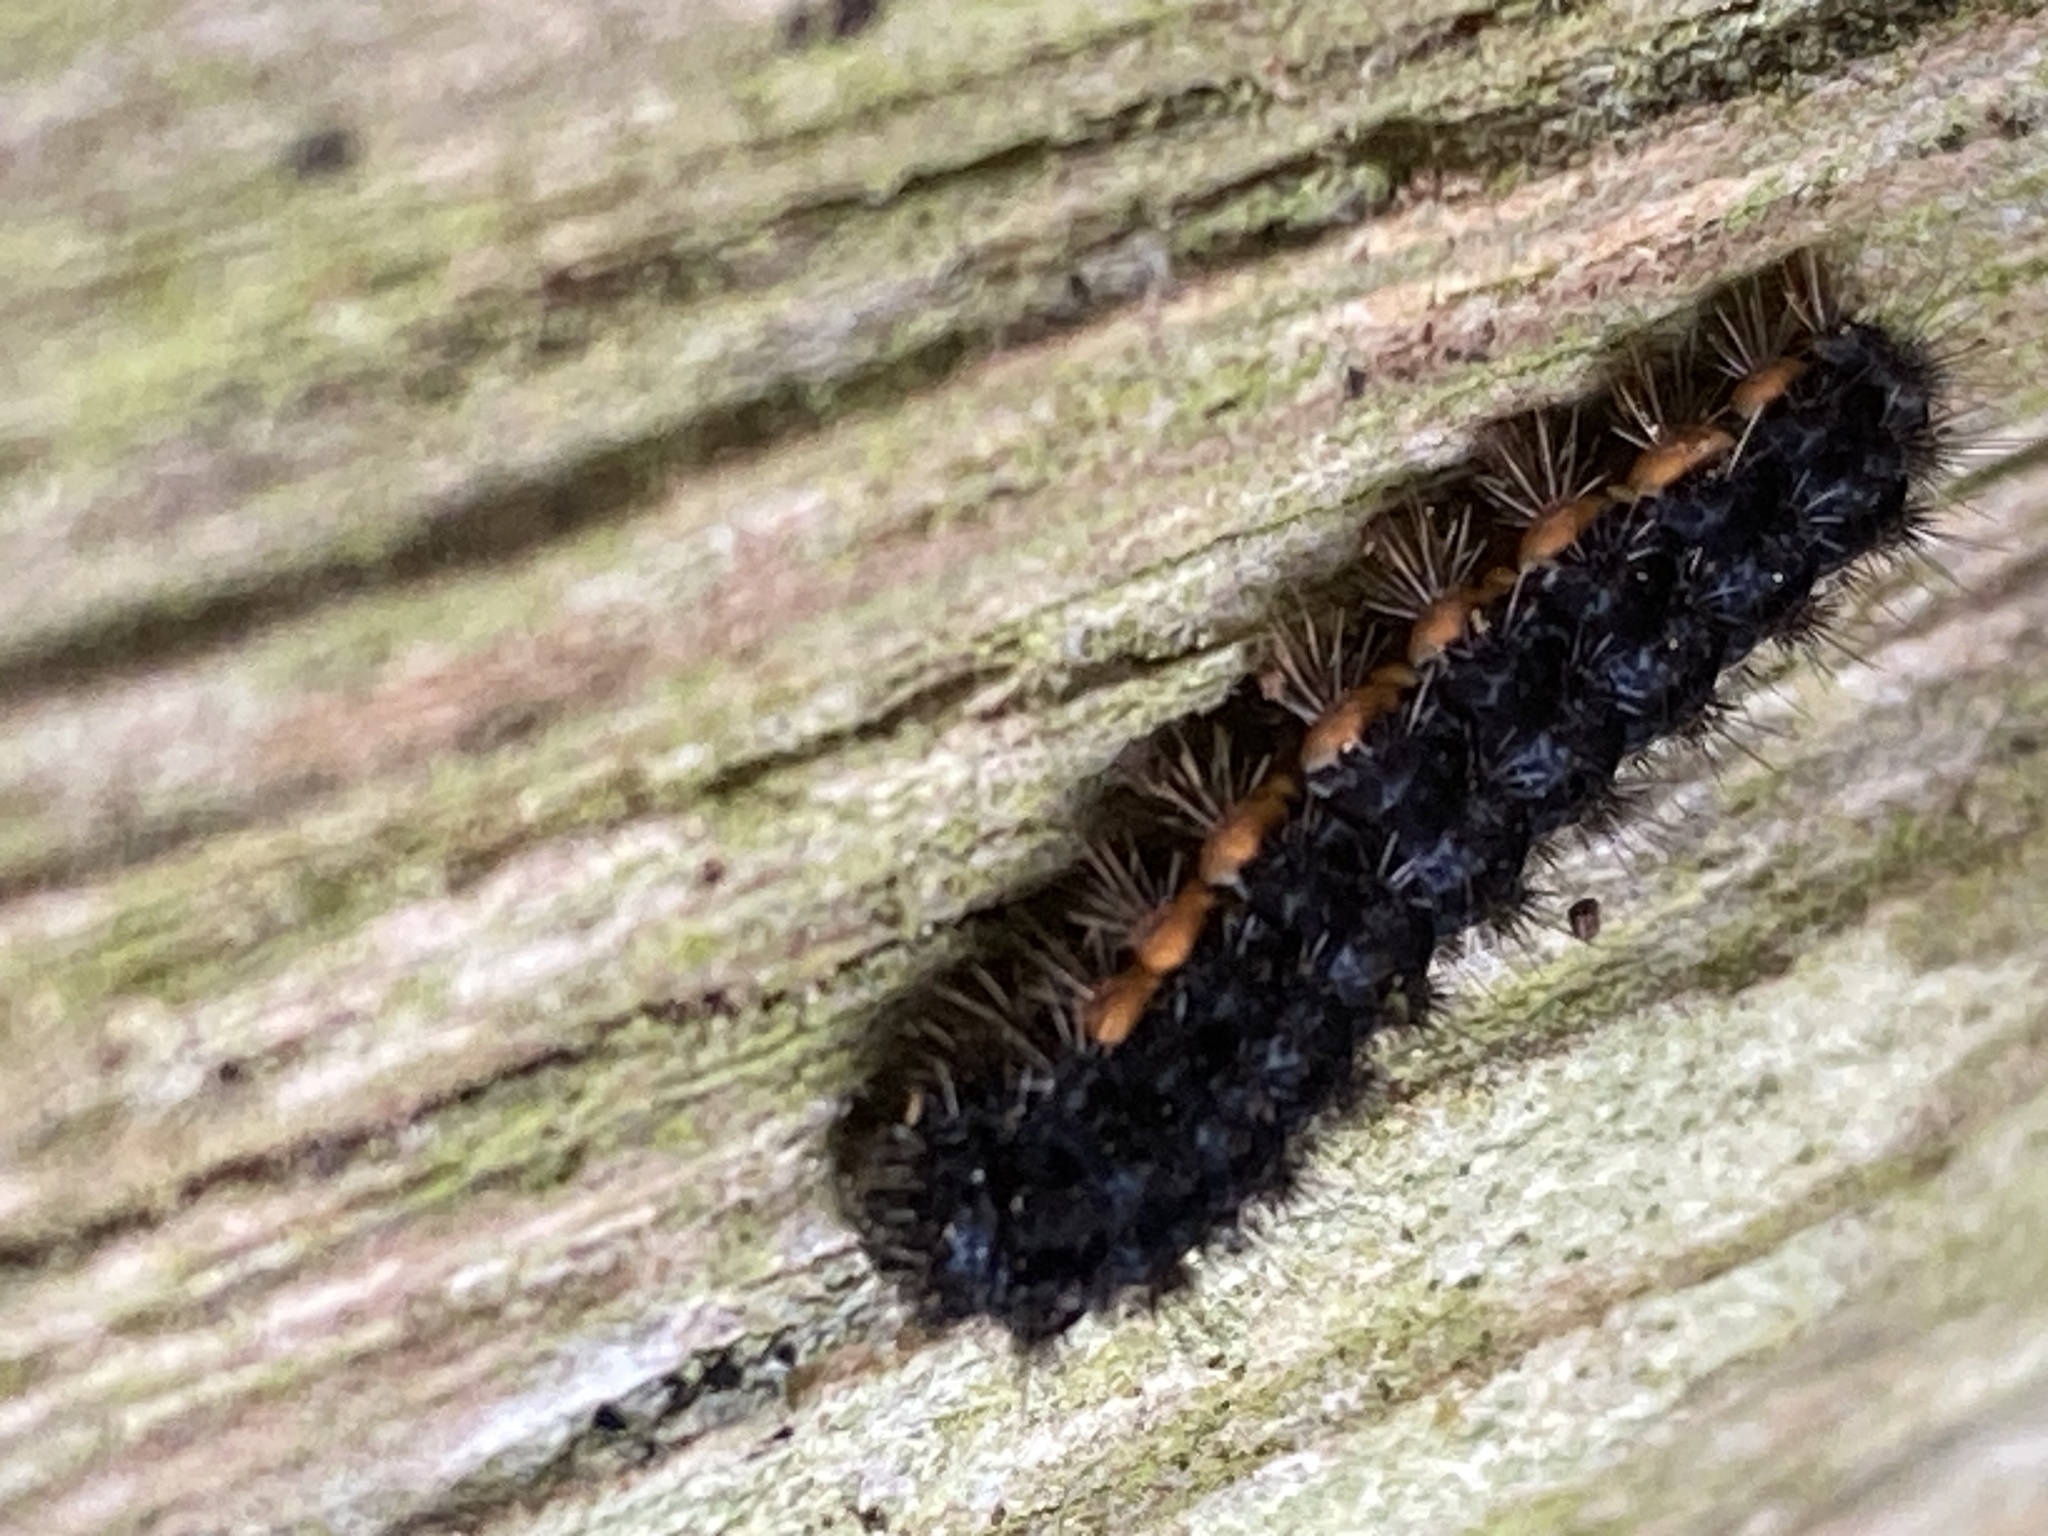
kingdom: Animalia
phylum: Arthropoda
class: Insecta
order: Lepidoptera
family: Erebidae
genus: Nyea
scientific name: Nyea lurideola
